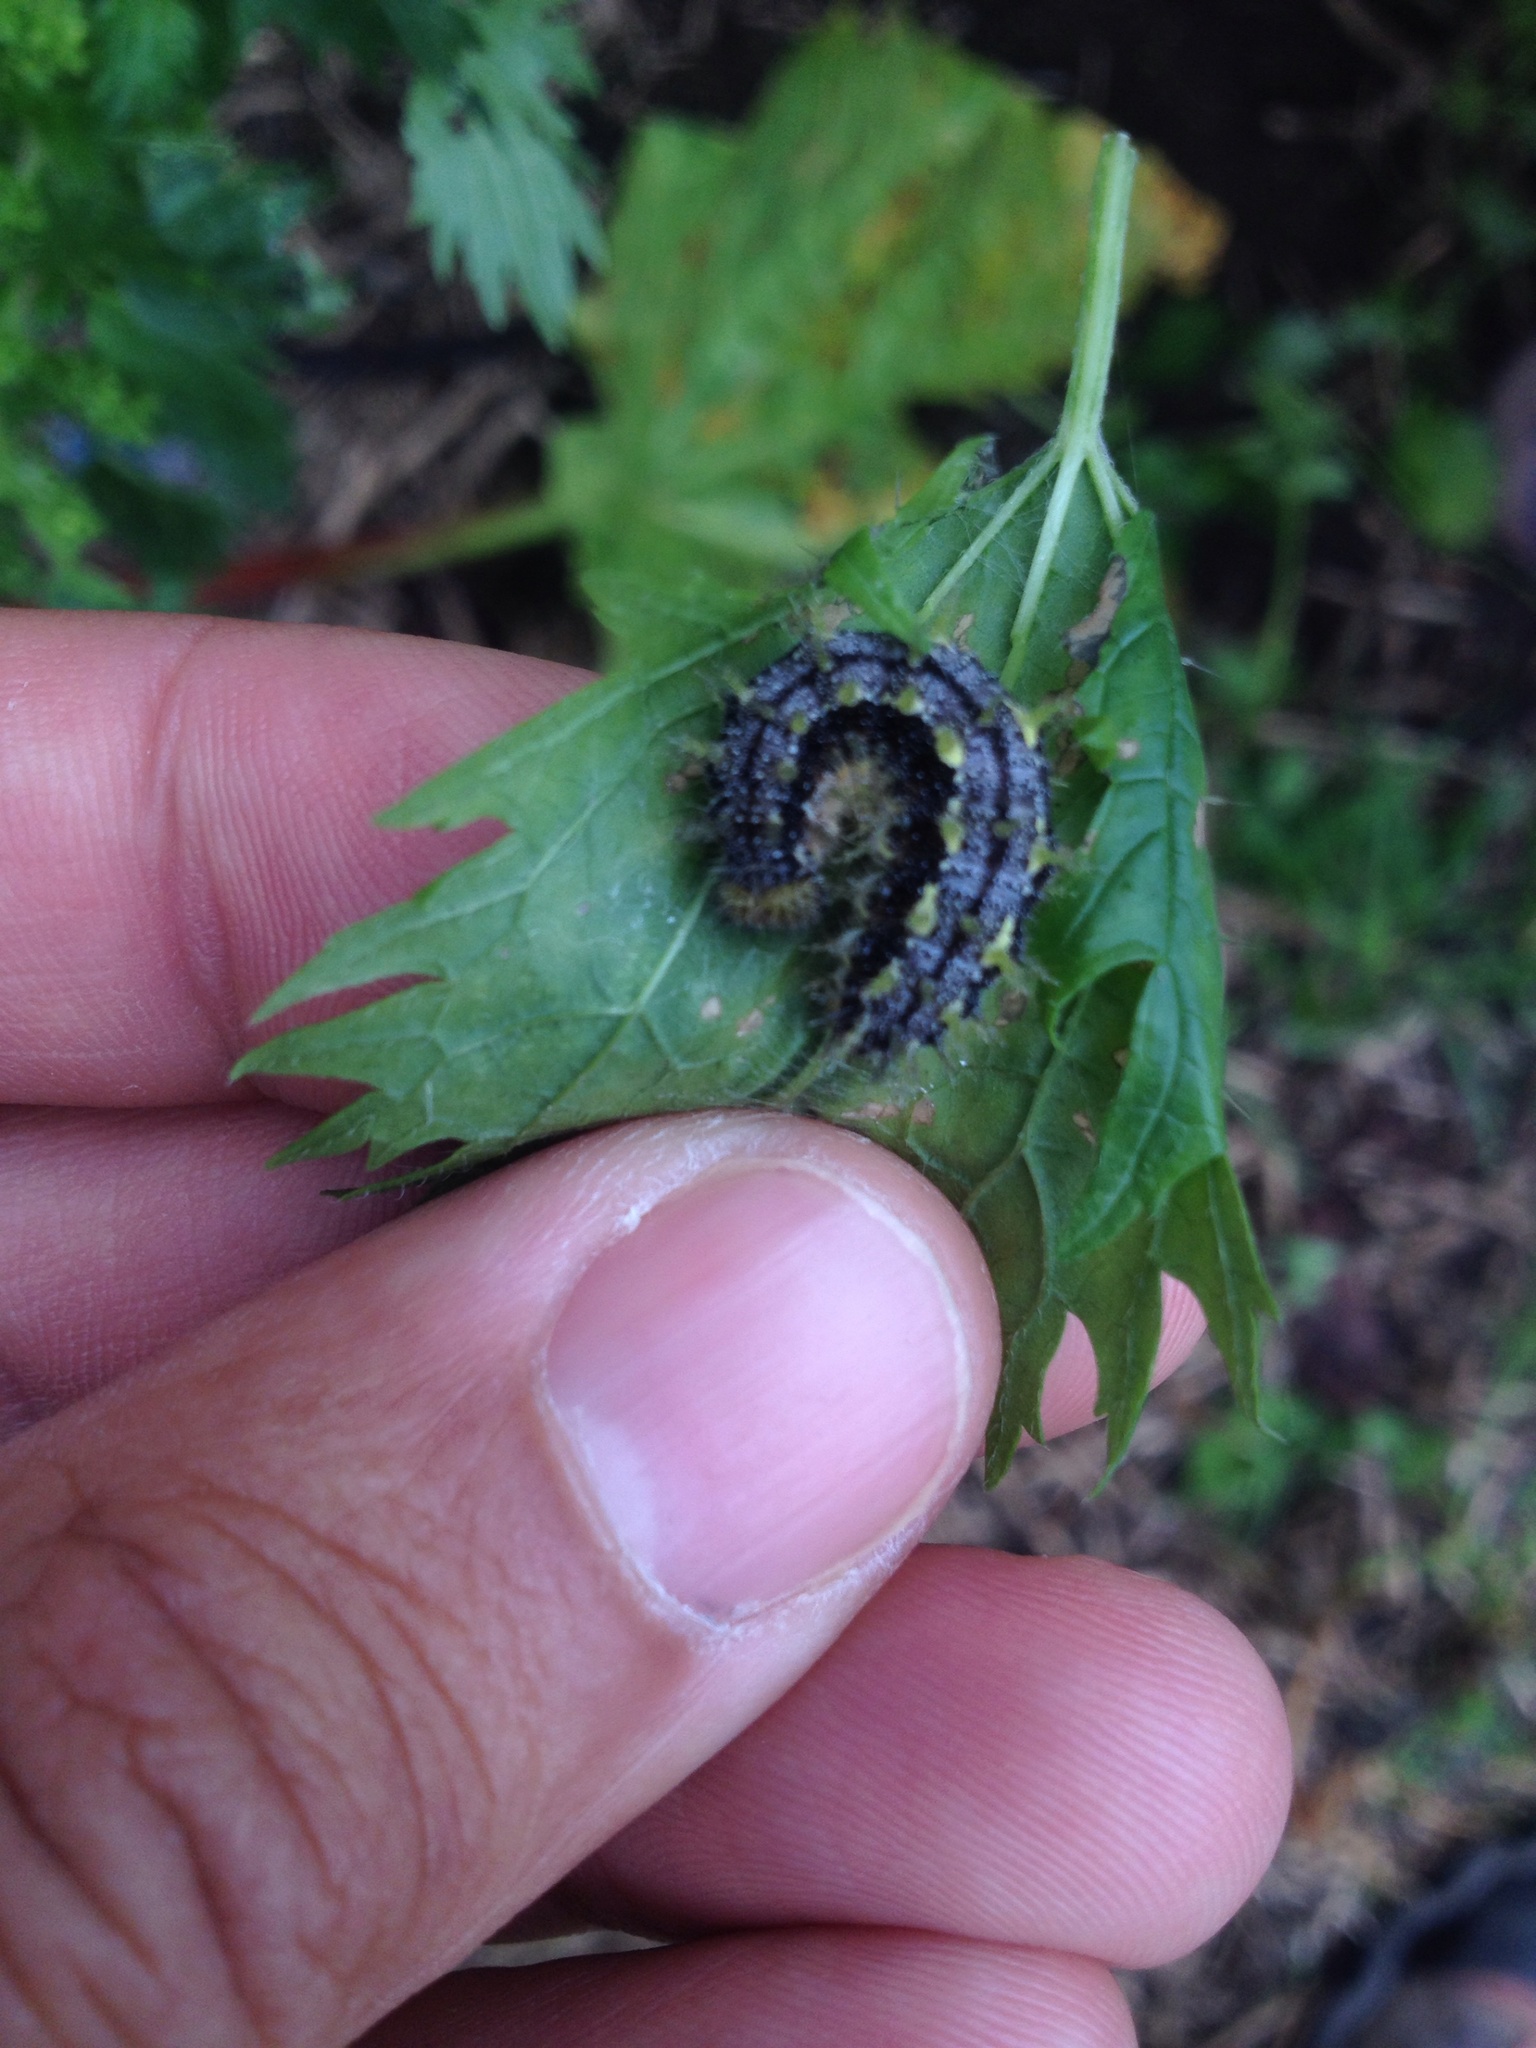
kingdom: Animalia
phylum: Arthropoda
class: Insecta
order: Lepidoptera
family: Nymphalidae
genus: Vanessa
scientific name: Vanessa itea
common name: Yellow admiral
